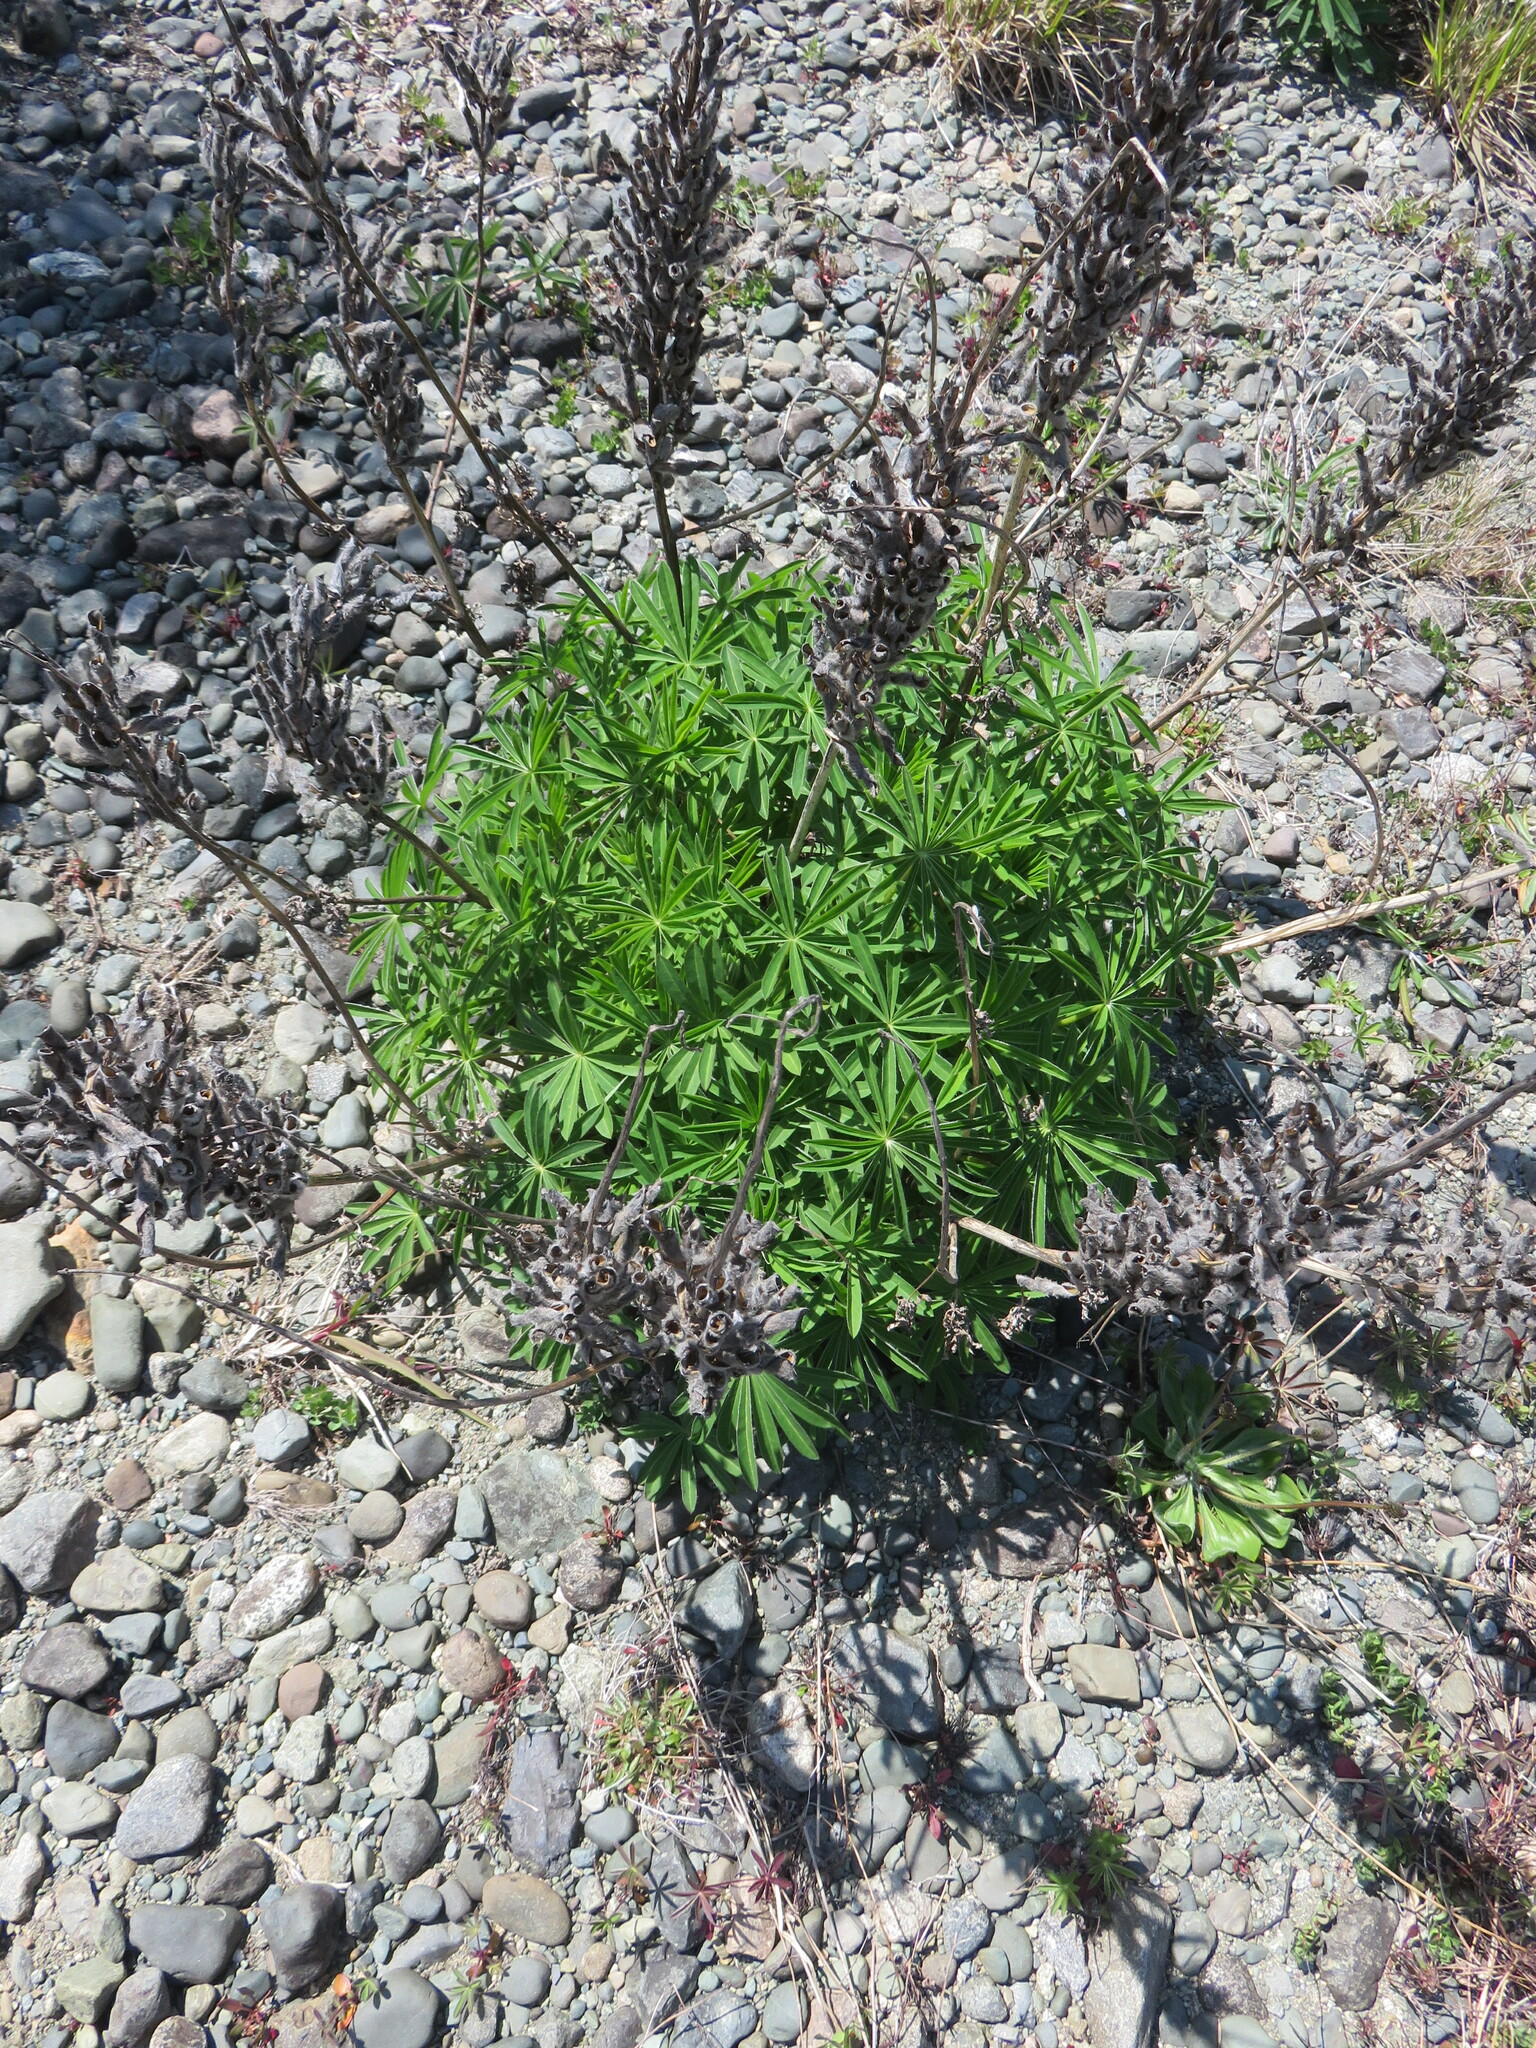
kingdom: Plantae
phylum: Tracheophyta
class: Magnoliopsida
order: Fabales
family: Fabaceae
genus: Lupinus
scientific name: Lupinus polyphyllus
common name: Garden lupin
